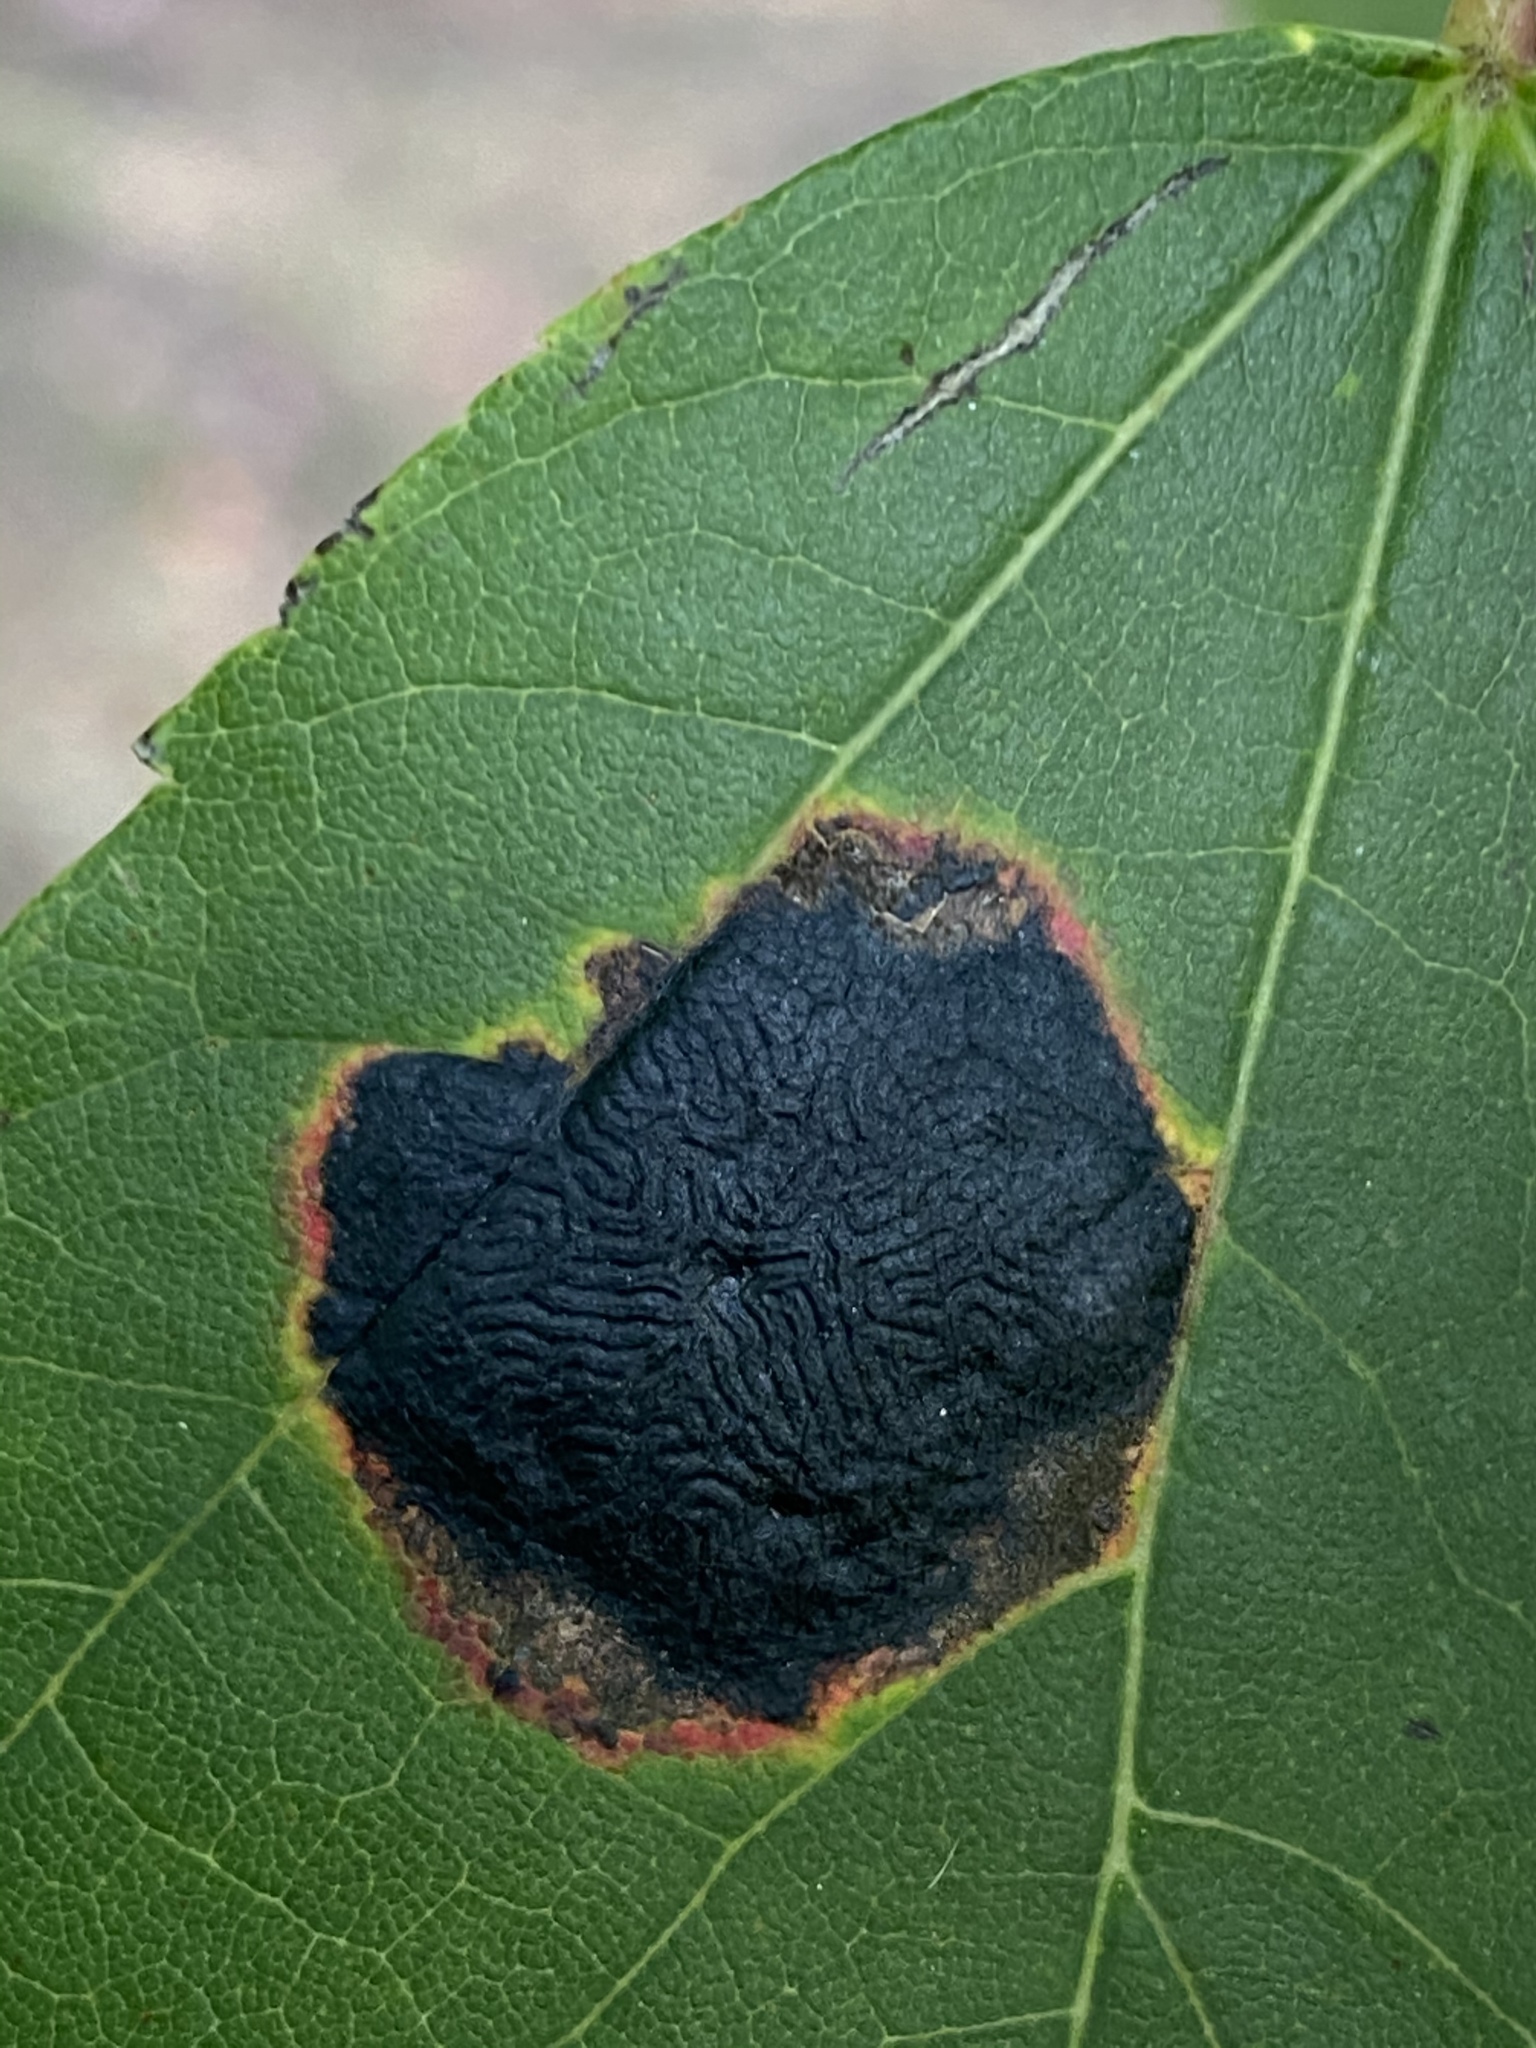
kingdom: Fungi
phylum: Ascomycota
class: Leotiomycetes
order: Rhytismatales
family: Rhytismataceae
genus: Rhytisma
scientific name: Rhytisma americanum
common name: American tar spot
